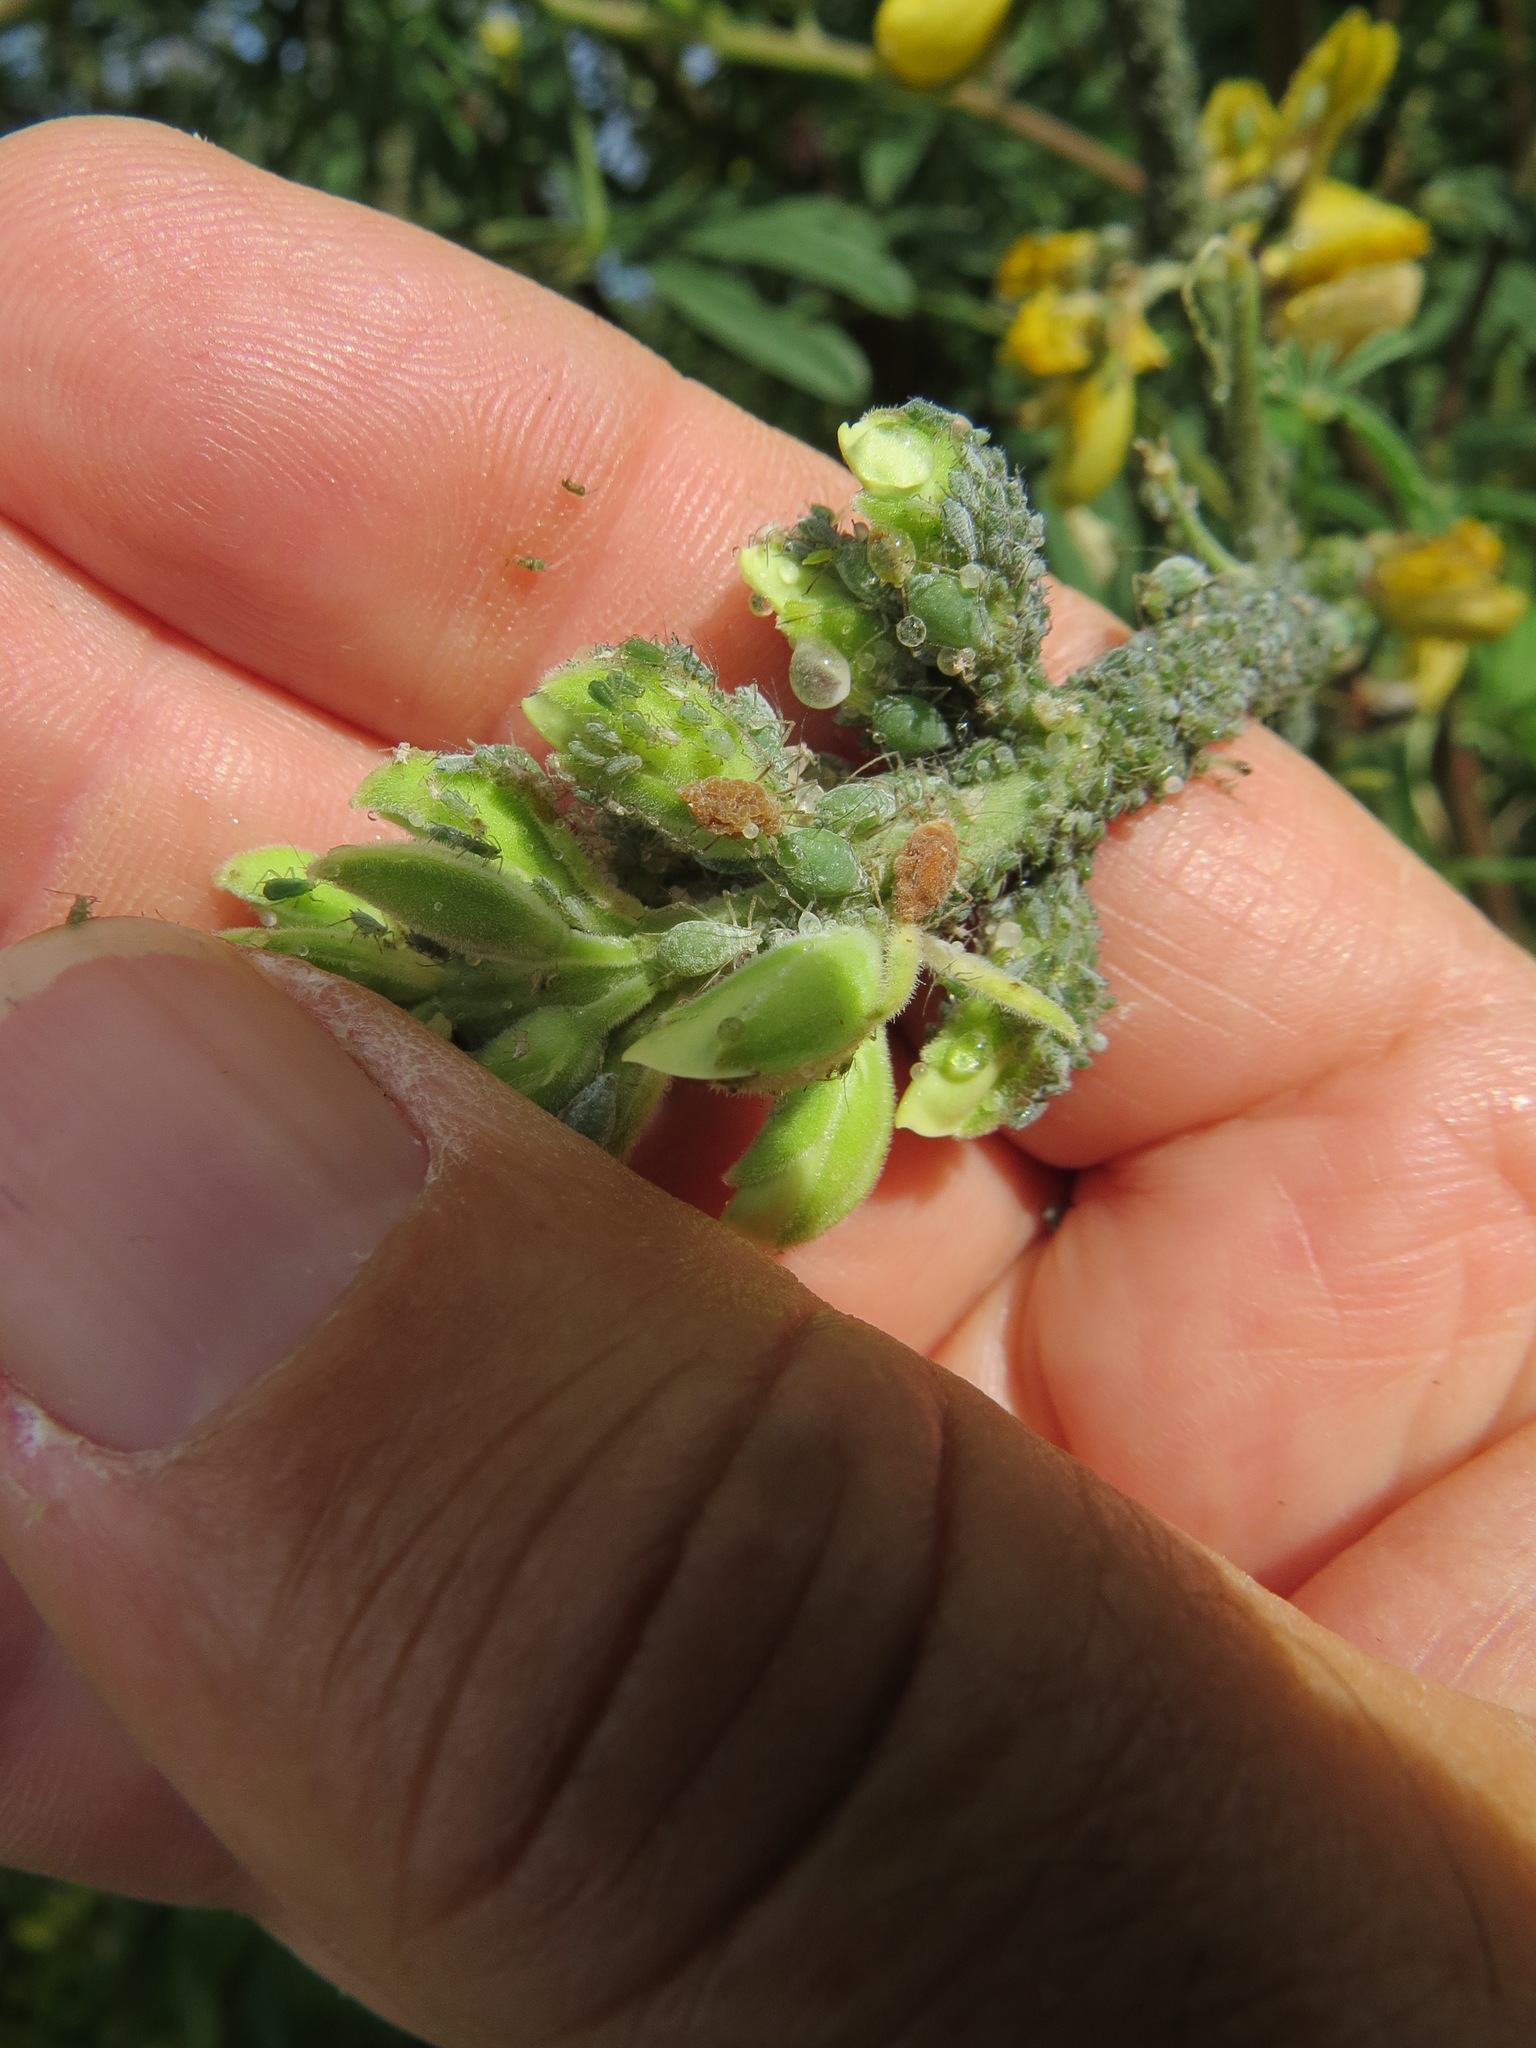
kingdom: Animalia
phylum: Arthropoda
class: Insecta
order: Hemiptera
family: Aphididae
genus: Macrosiphum
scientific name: Macrosiphum albifrons
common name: Lupine aphid
